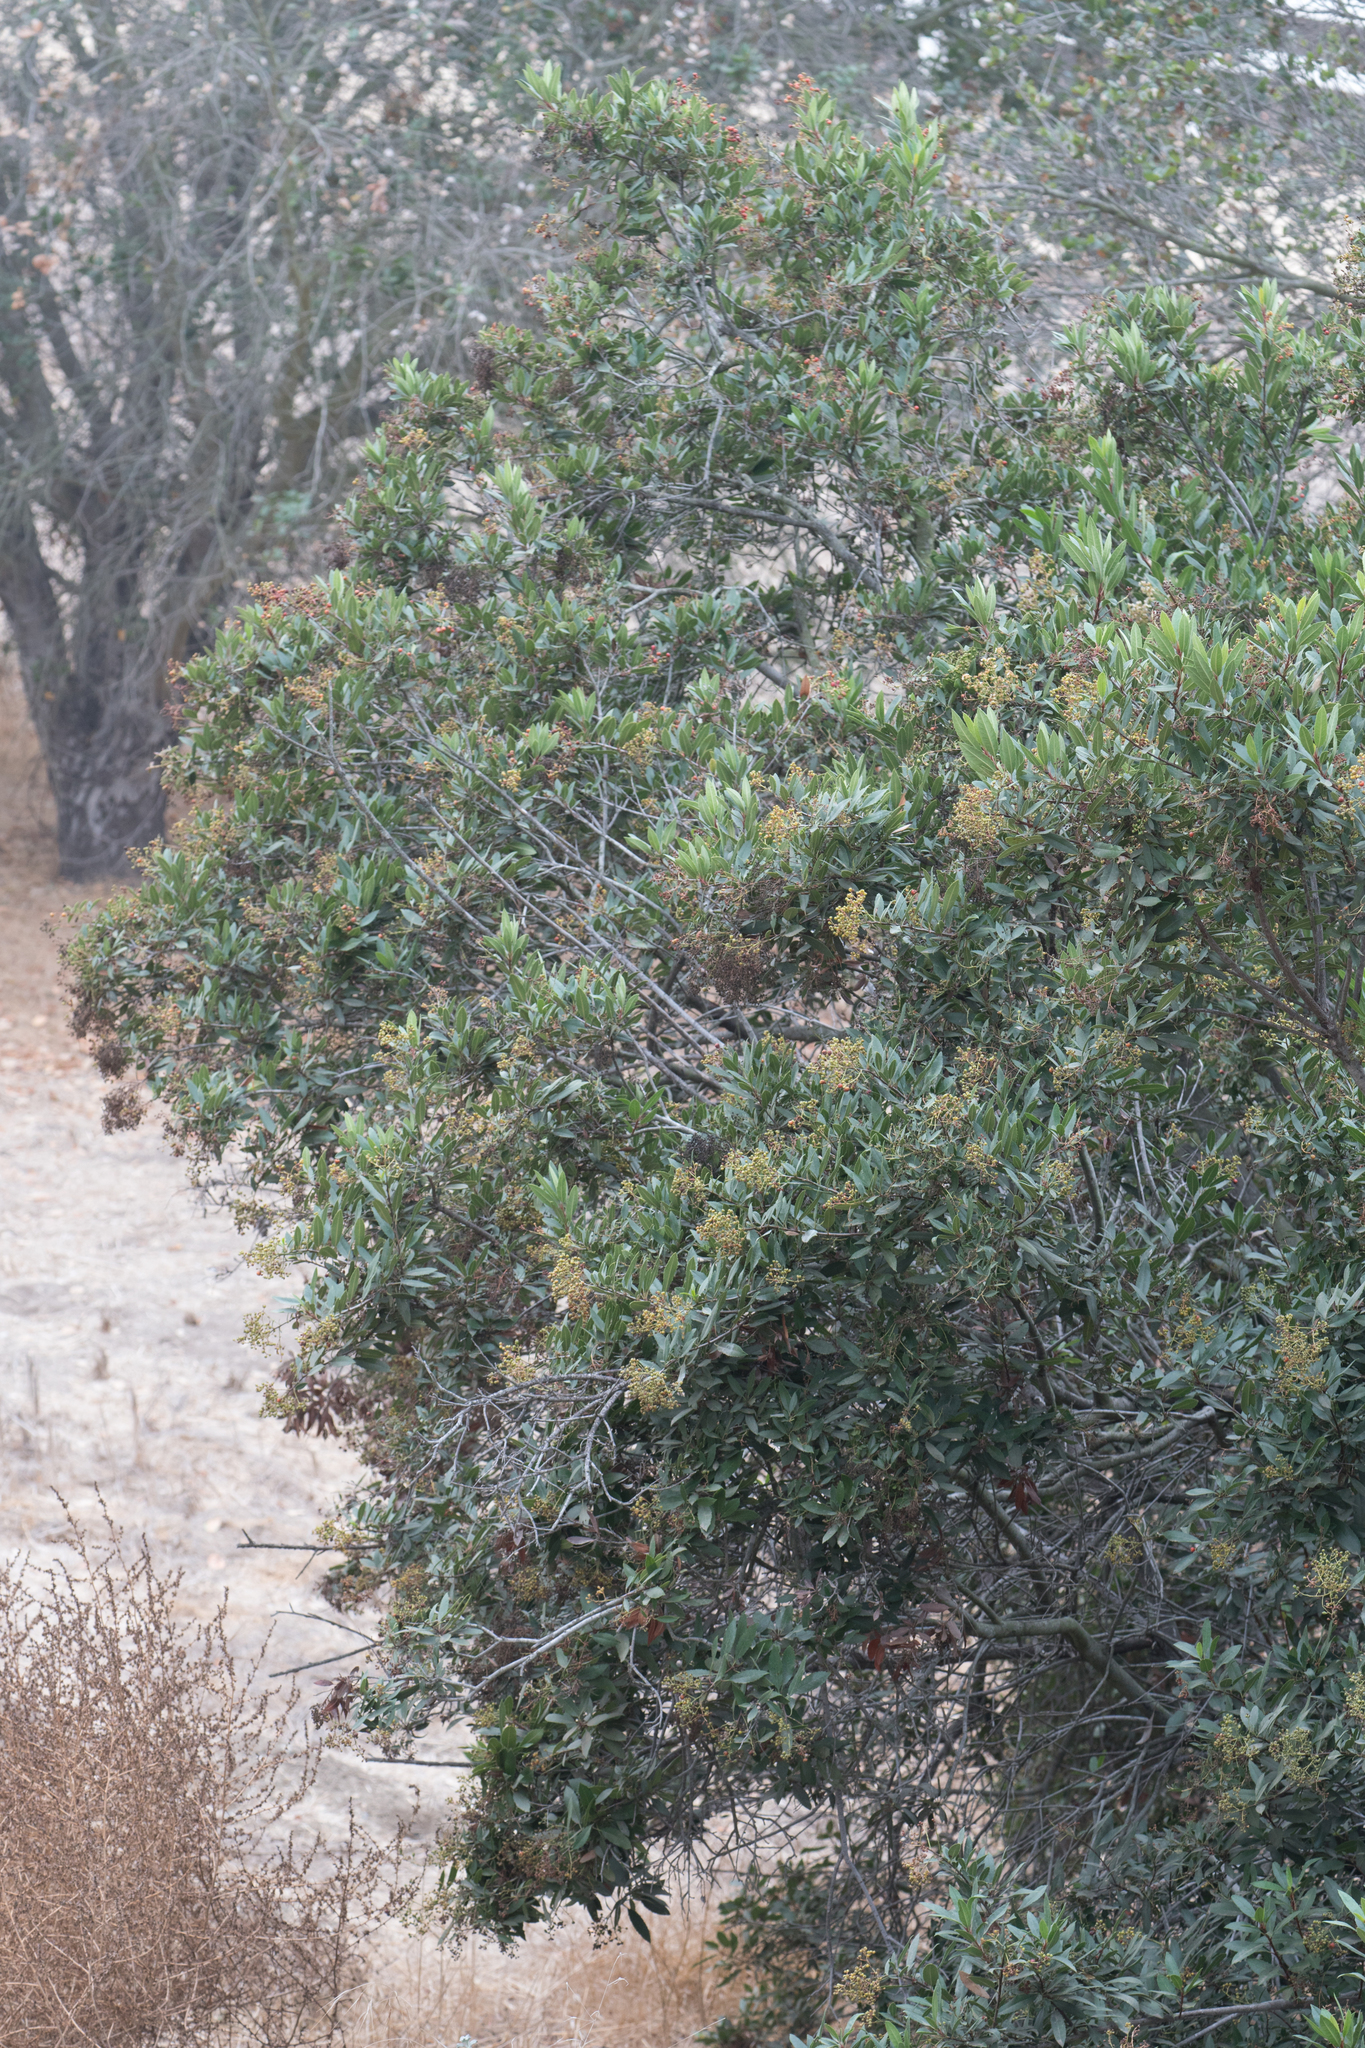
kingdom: Plantae
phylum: Tracheophyta
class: Magnoliopsida
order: Rosales
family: Rosaceae
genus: Heteromeles
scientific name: Heteromeles arbutifolia
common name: California-holly
